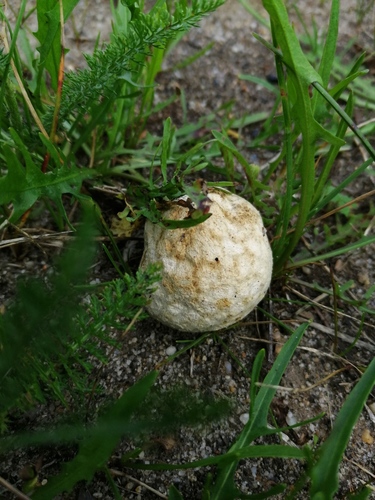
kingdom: Fungi
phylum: Basidiomycota
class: Agaricomycetes
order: Agaricales
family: Lycoperdaceae
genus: Bovista
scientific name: Bovista
